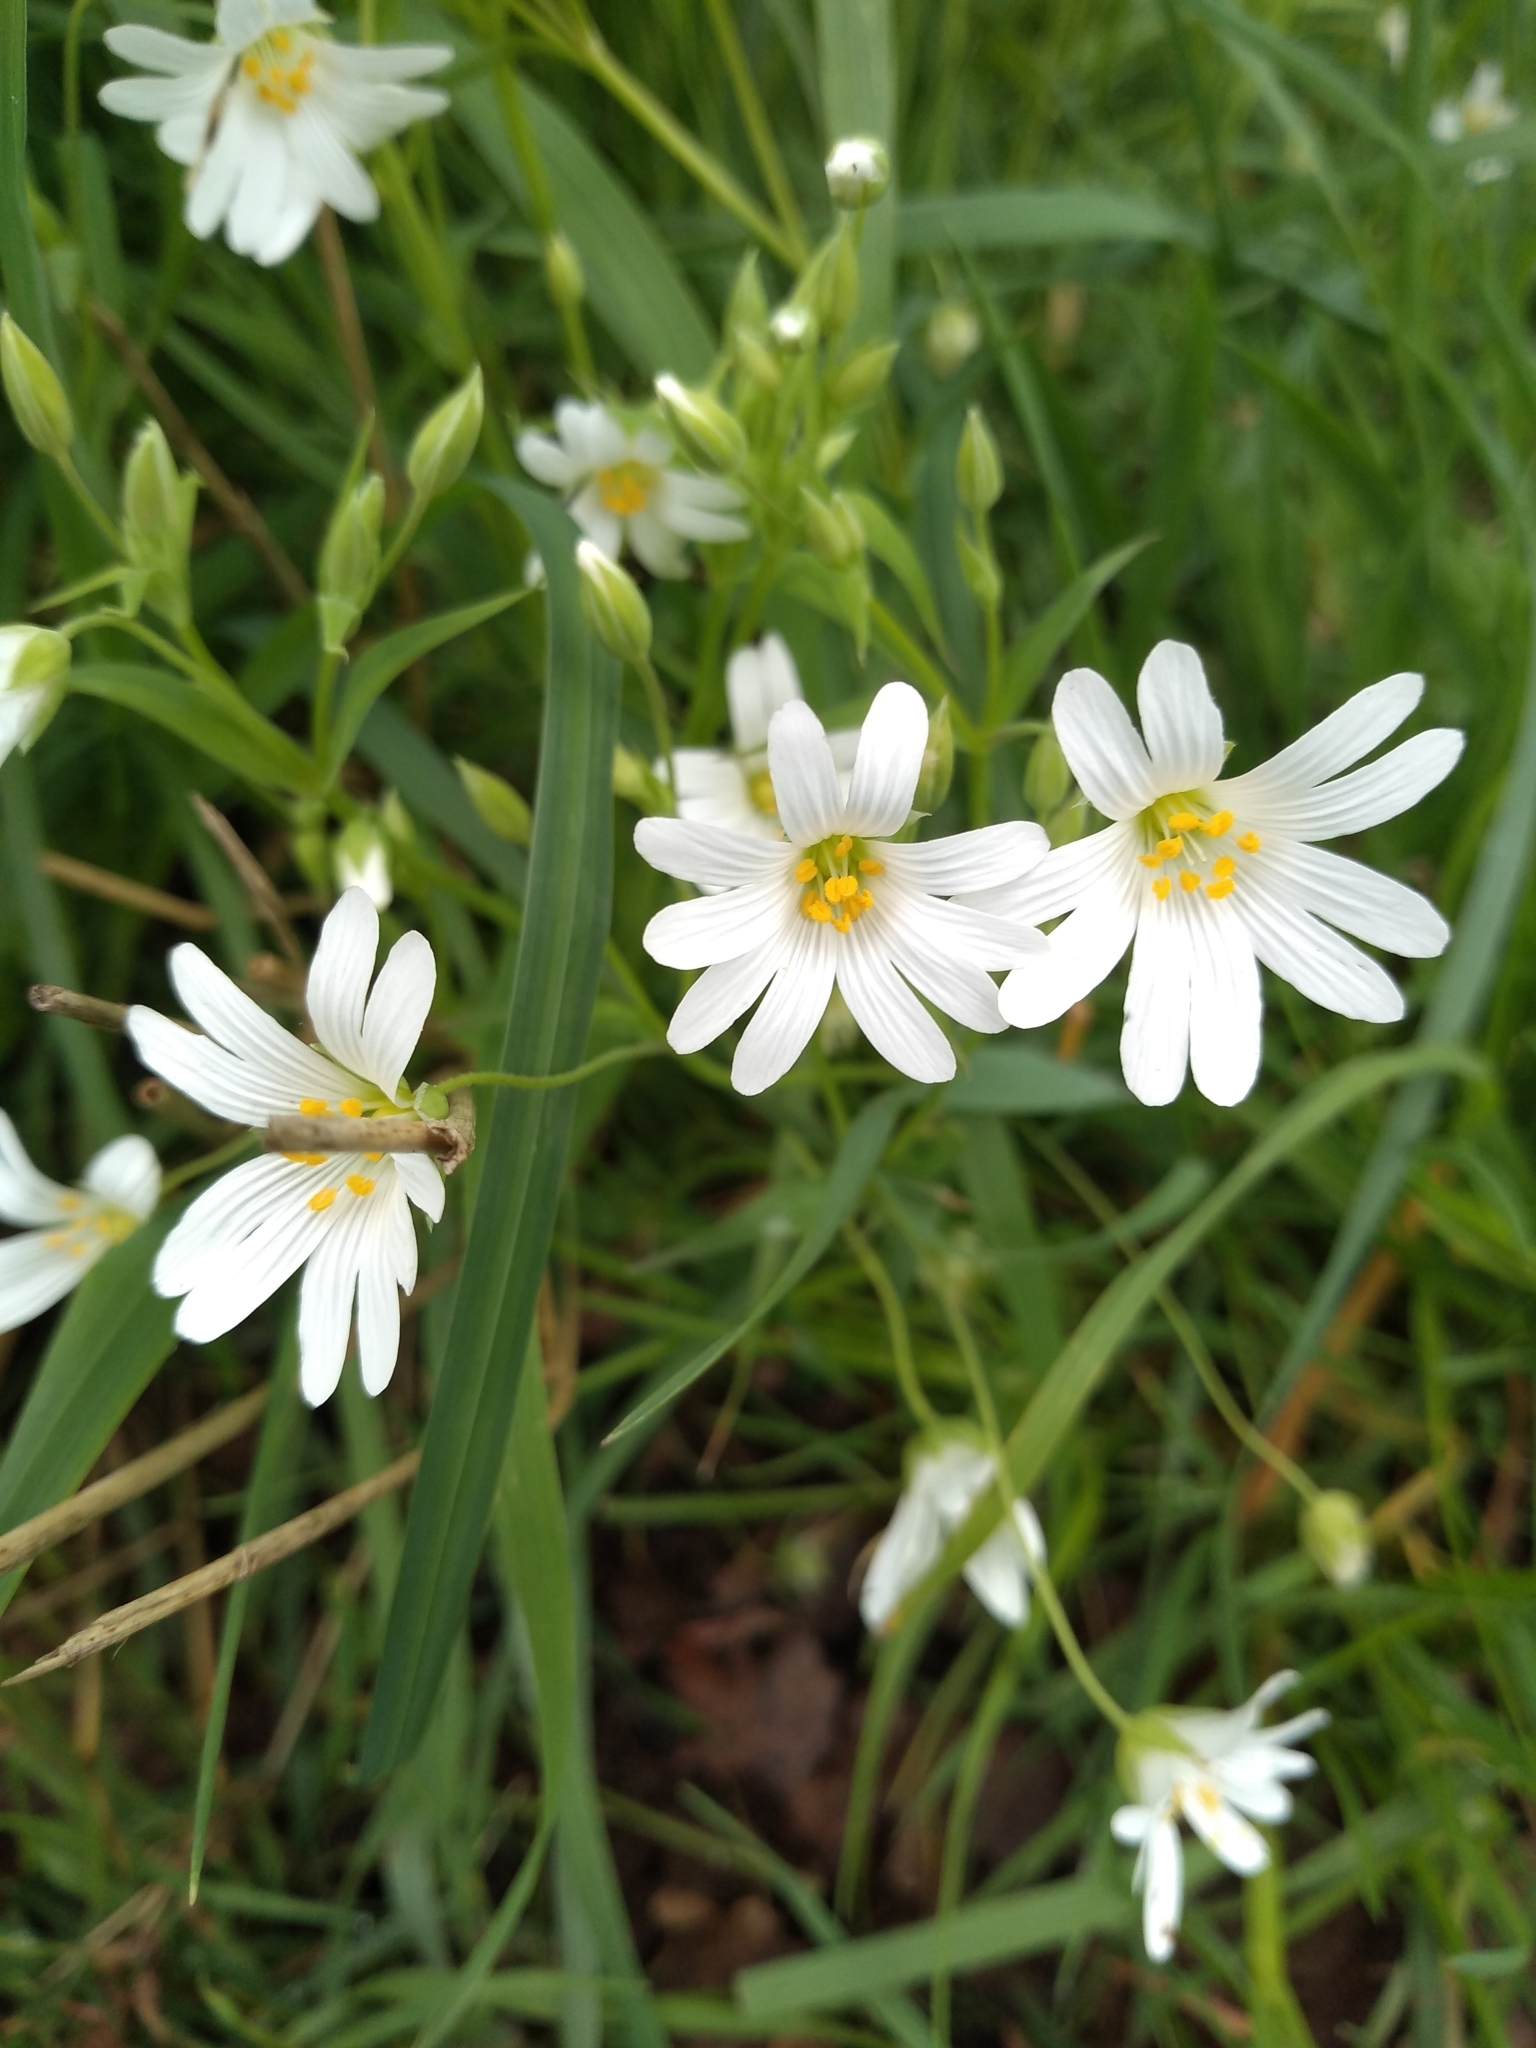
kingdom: Plantae
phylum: Tracheophyta
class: Magnoliopsida
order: Caryophyllales
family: Caryophyllaceae
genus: Rabelera
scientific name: Rabelera holostea
